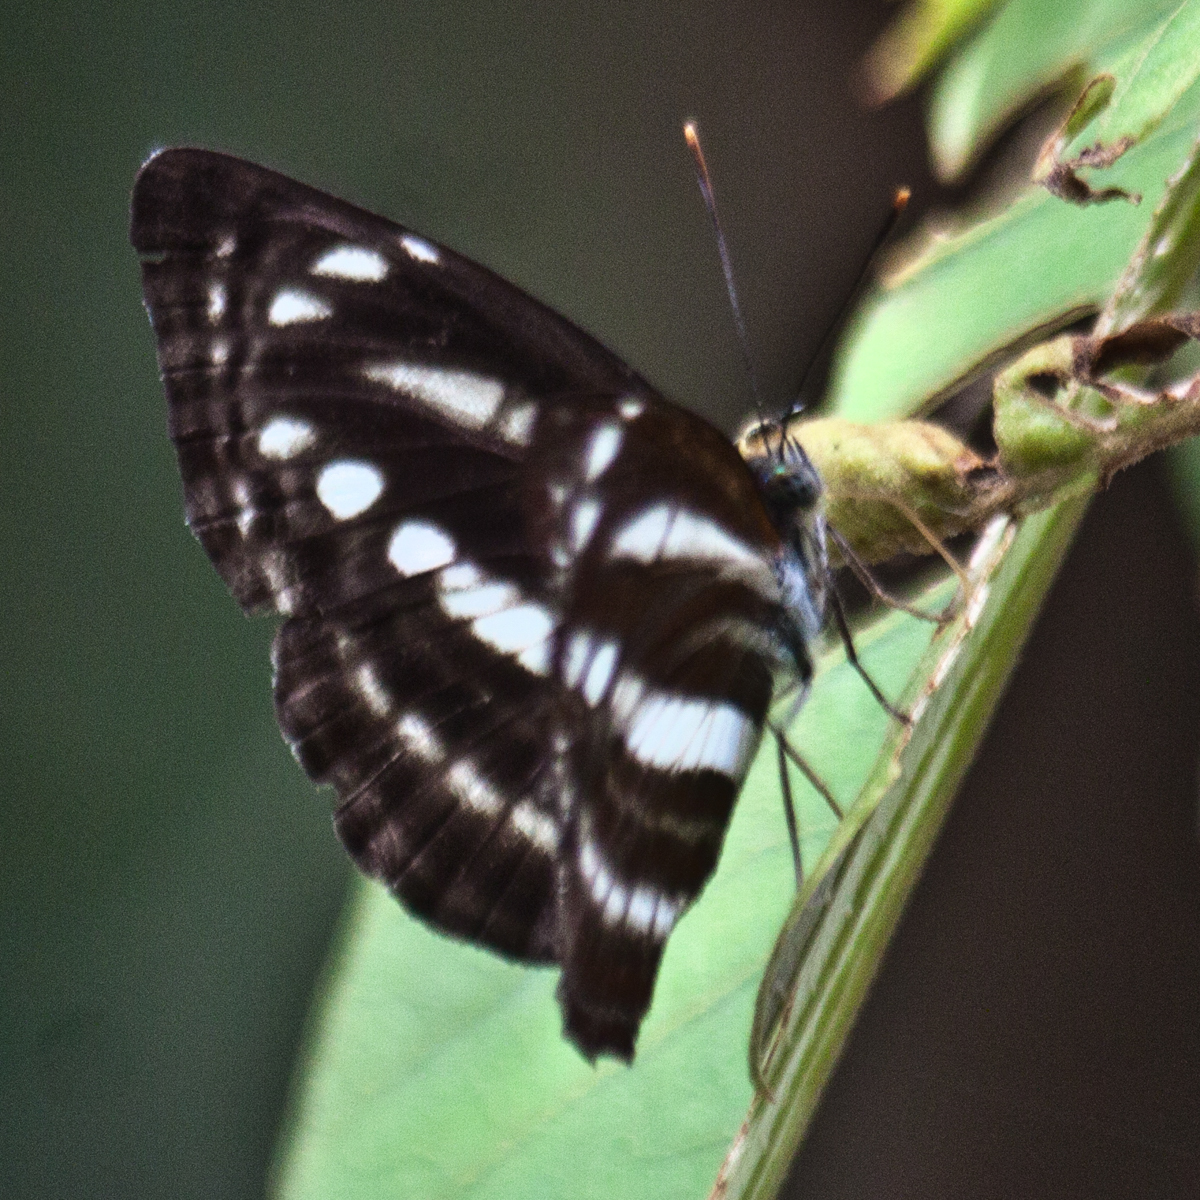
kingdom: Animalia
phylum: Arthropoda
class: Insecta
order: Lepidoptera
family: Nymphalidae
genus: Neptis
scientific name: Neptis nata
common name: Sullied brown sailer
